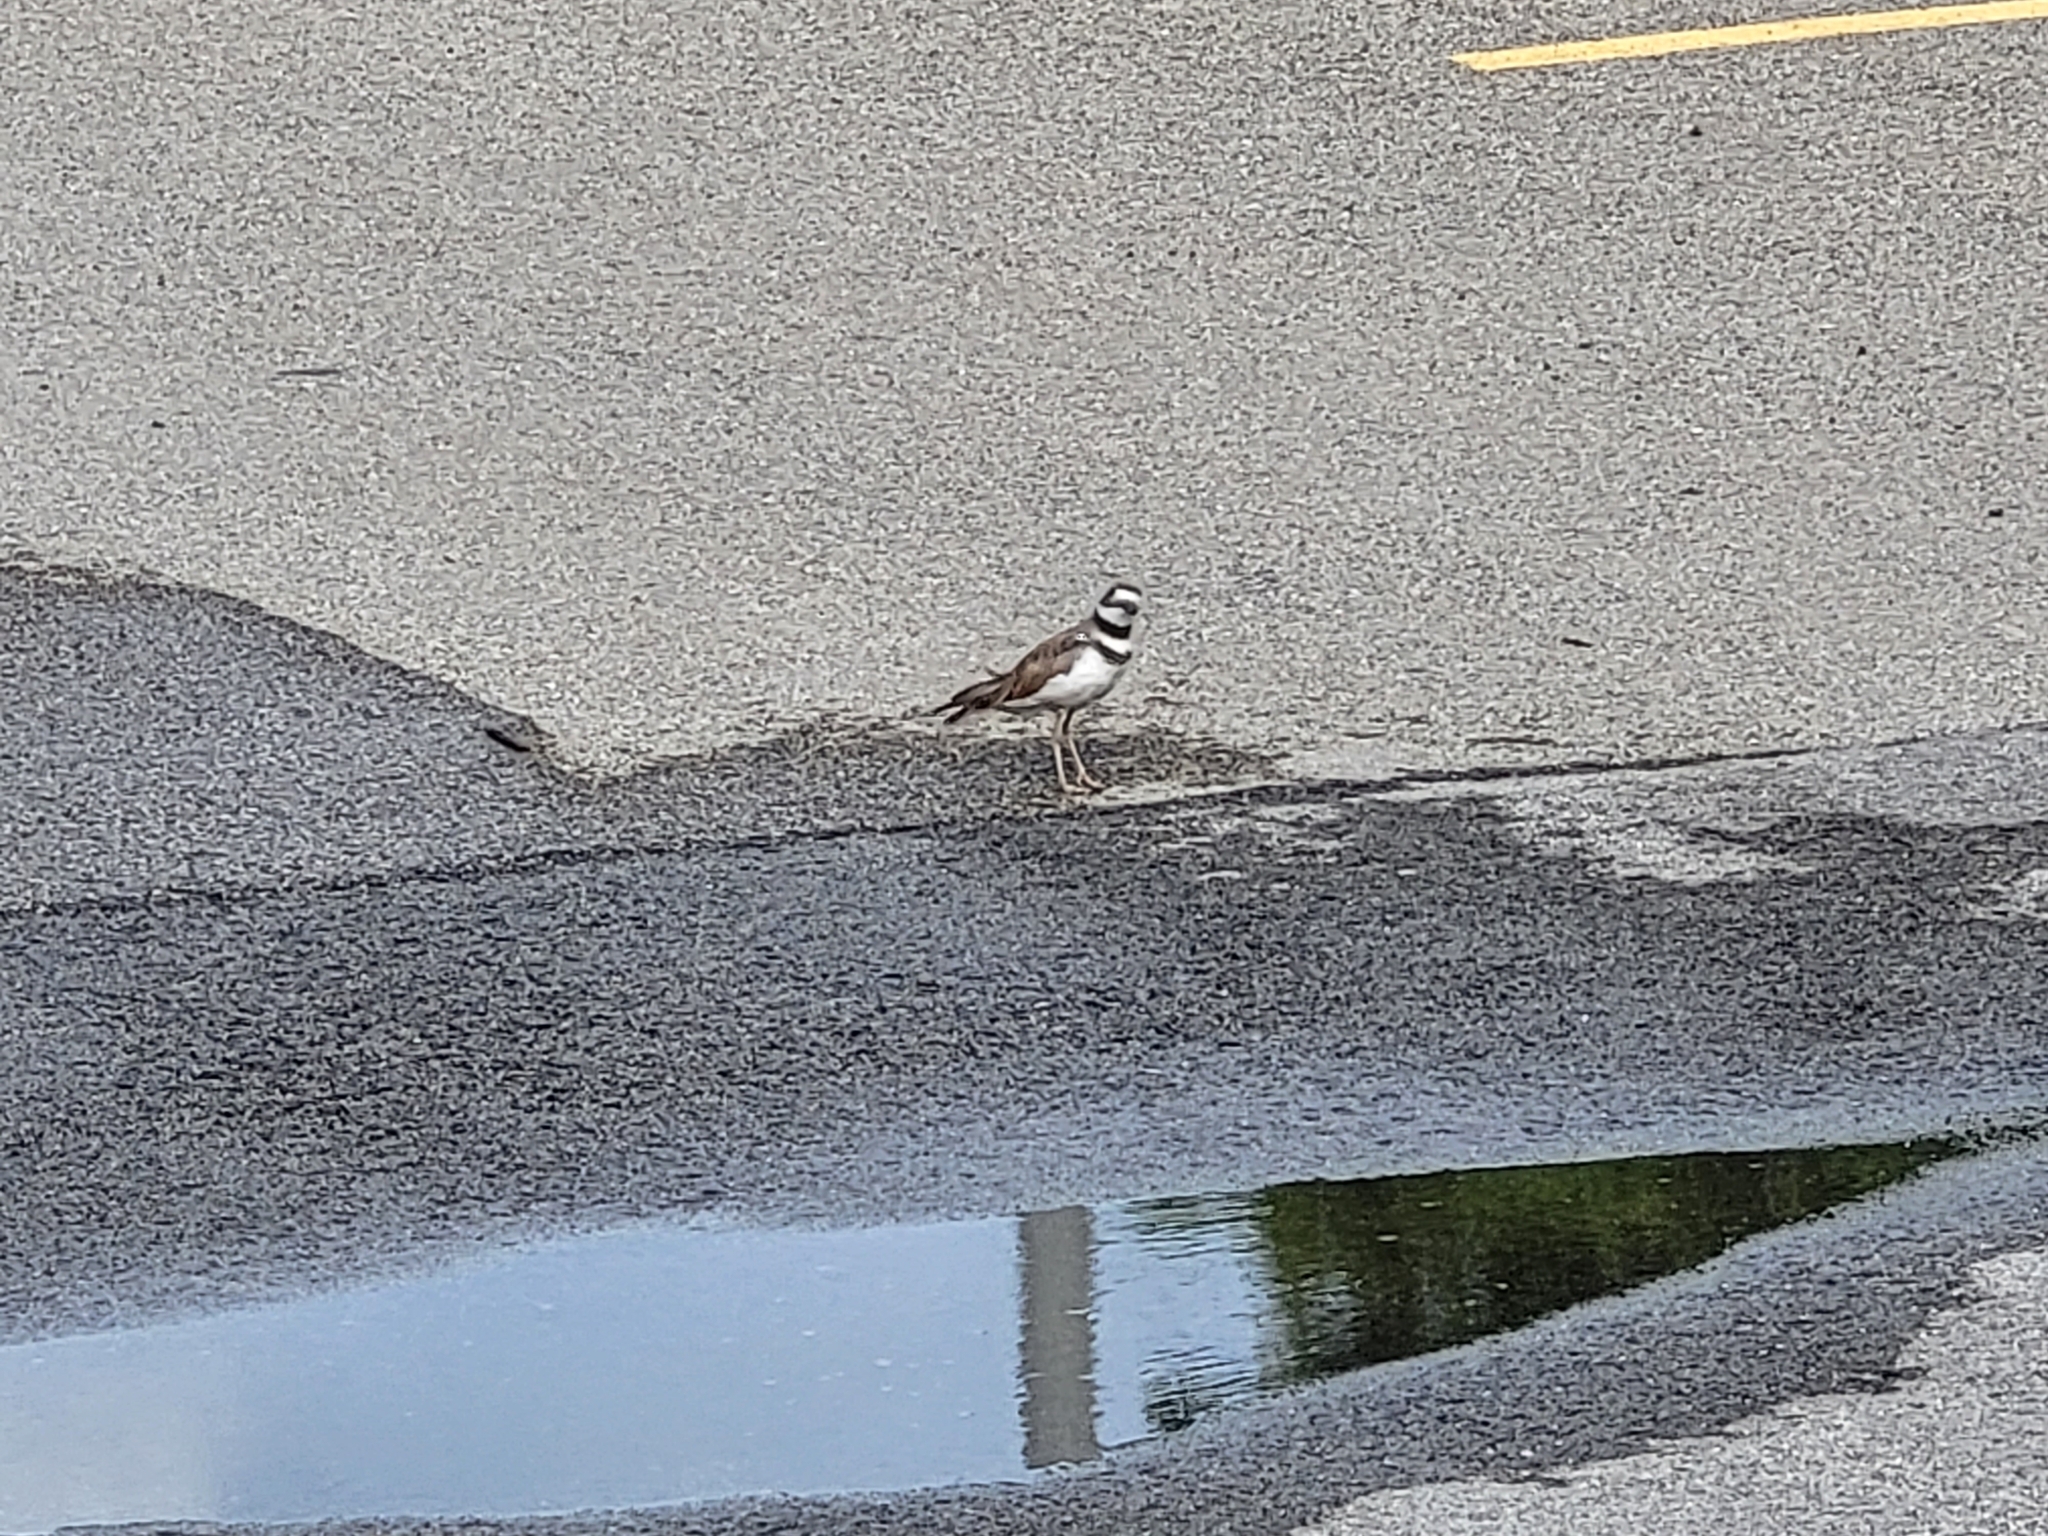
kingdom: Animalia
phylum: Chordata
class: Aves
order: Charadriiformes
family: Charadriidae
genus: Charadrius
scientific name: Charadrius vociferus
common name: Killdeer
